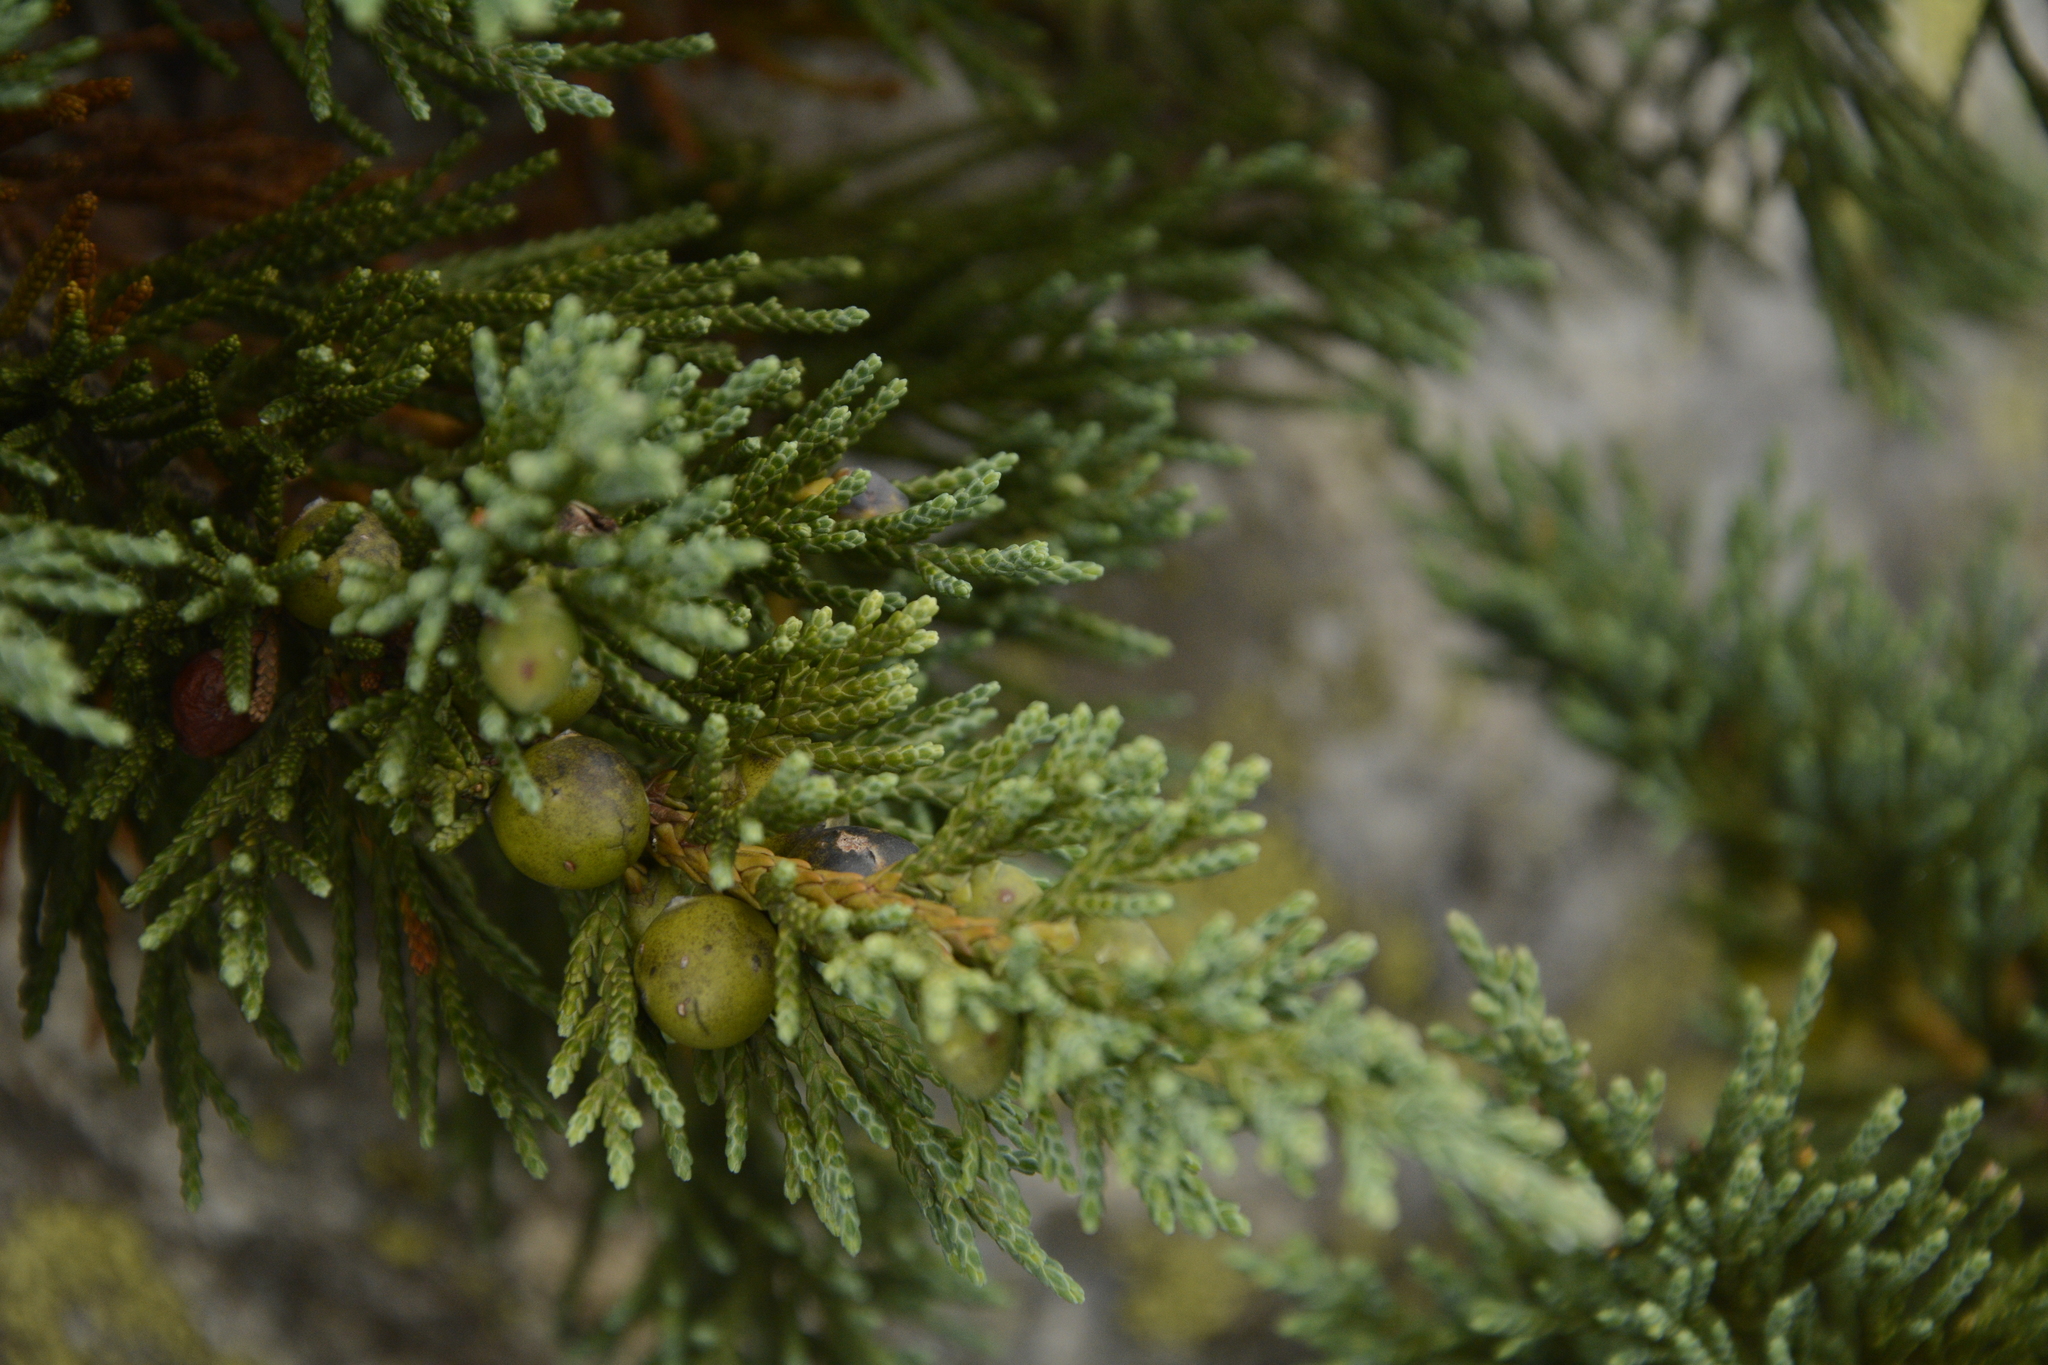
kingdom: Plantae
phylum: Tracheophyta
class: Pinopsida
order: Pinales
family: Cupressaceae
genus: Juniperus
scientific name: Juniperus indica
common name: Black juniper
